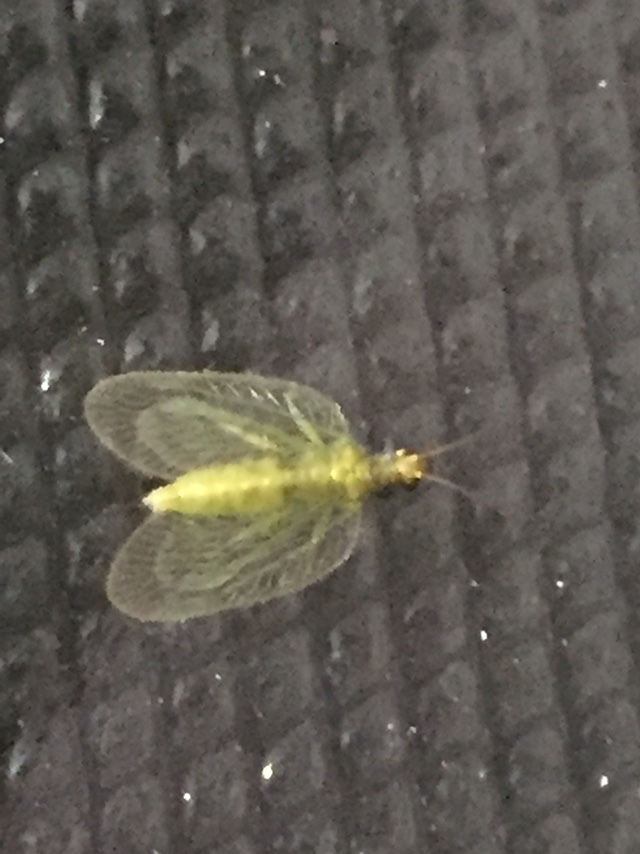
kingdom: Animalia
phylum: Arthropoda
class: Insecta
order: Neuroptera
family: Hemerobiidae
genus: Notiobiella
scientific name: Notiobiella viridinervis
